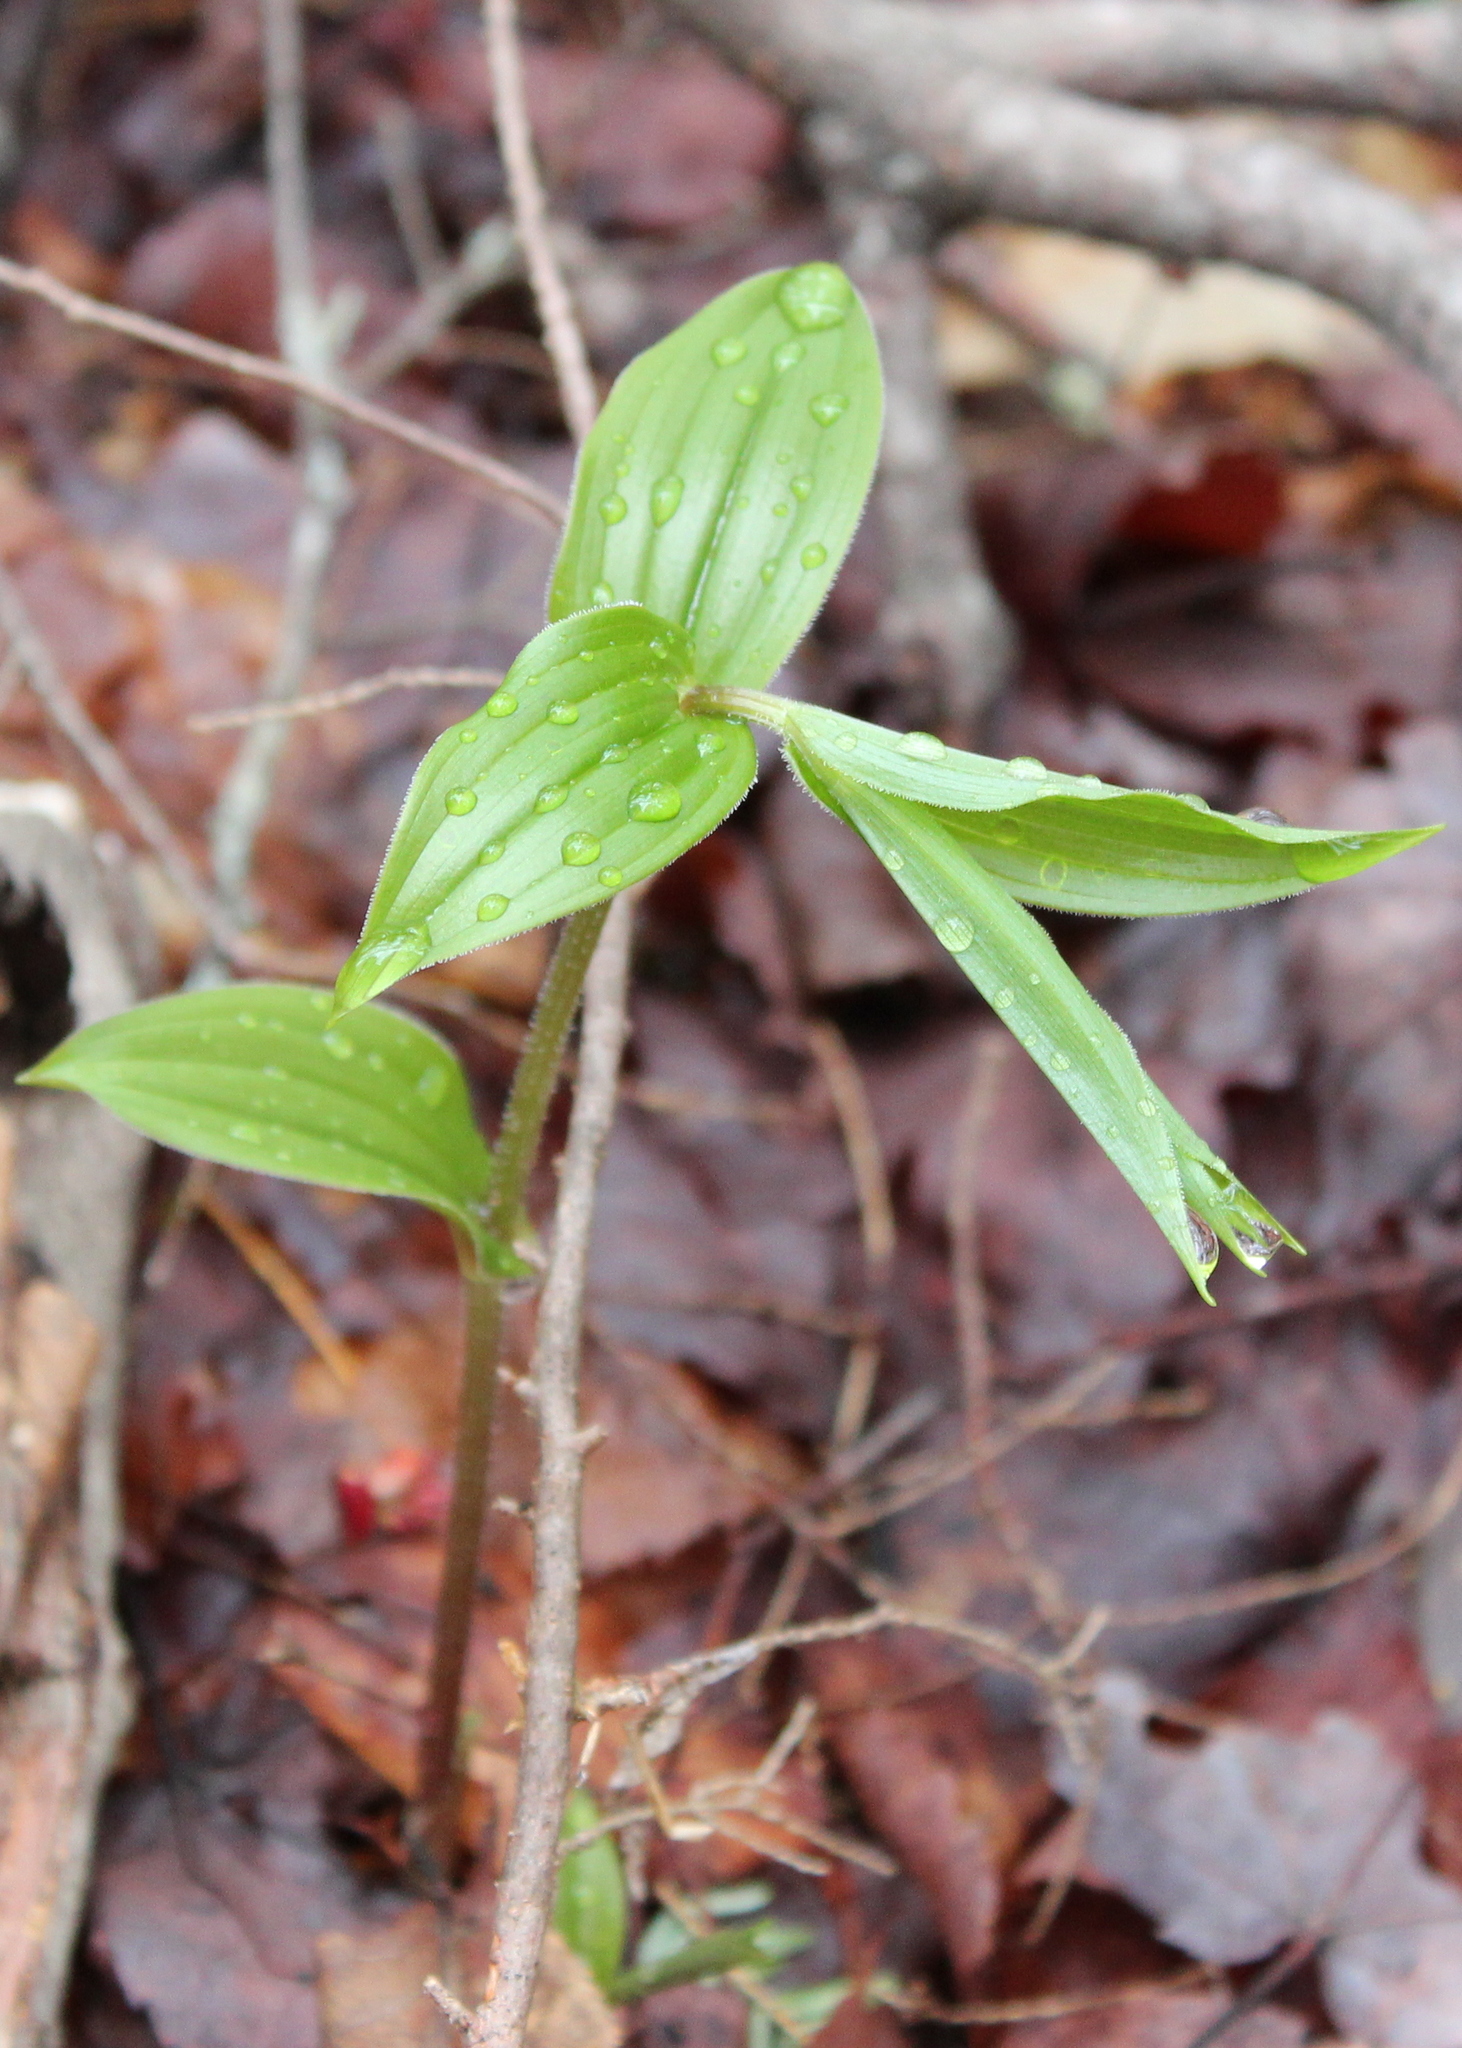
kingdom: Plantae
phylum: Tracheophyta
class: Liliopsida
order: Liliales
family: Liliaceae
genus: Streptopus
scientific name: Streptopus lanceolatus
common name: Rose mandarin
